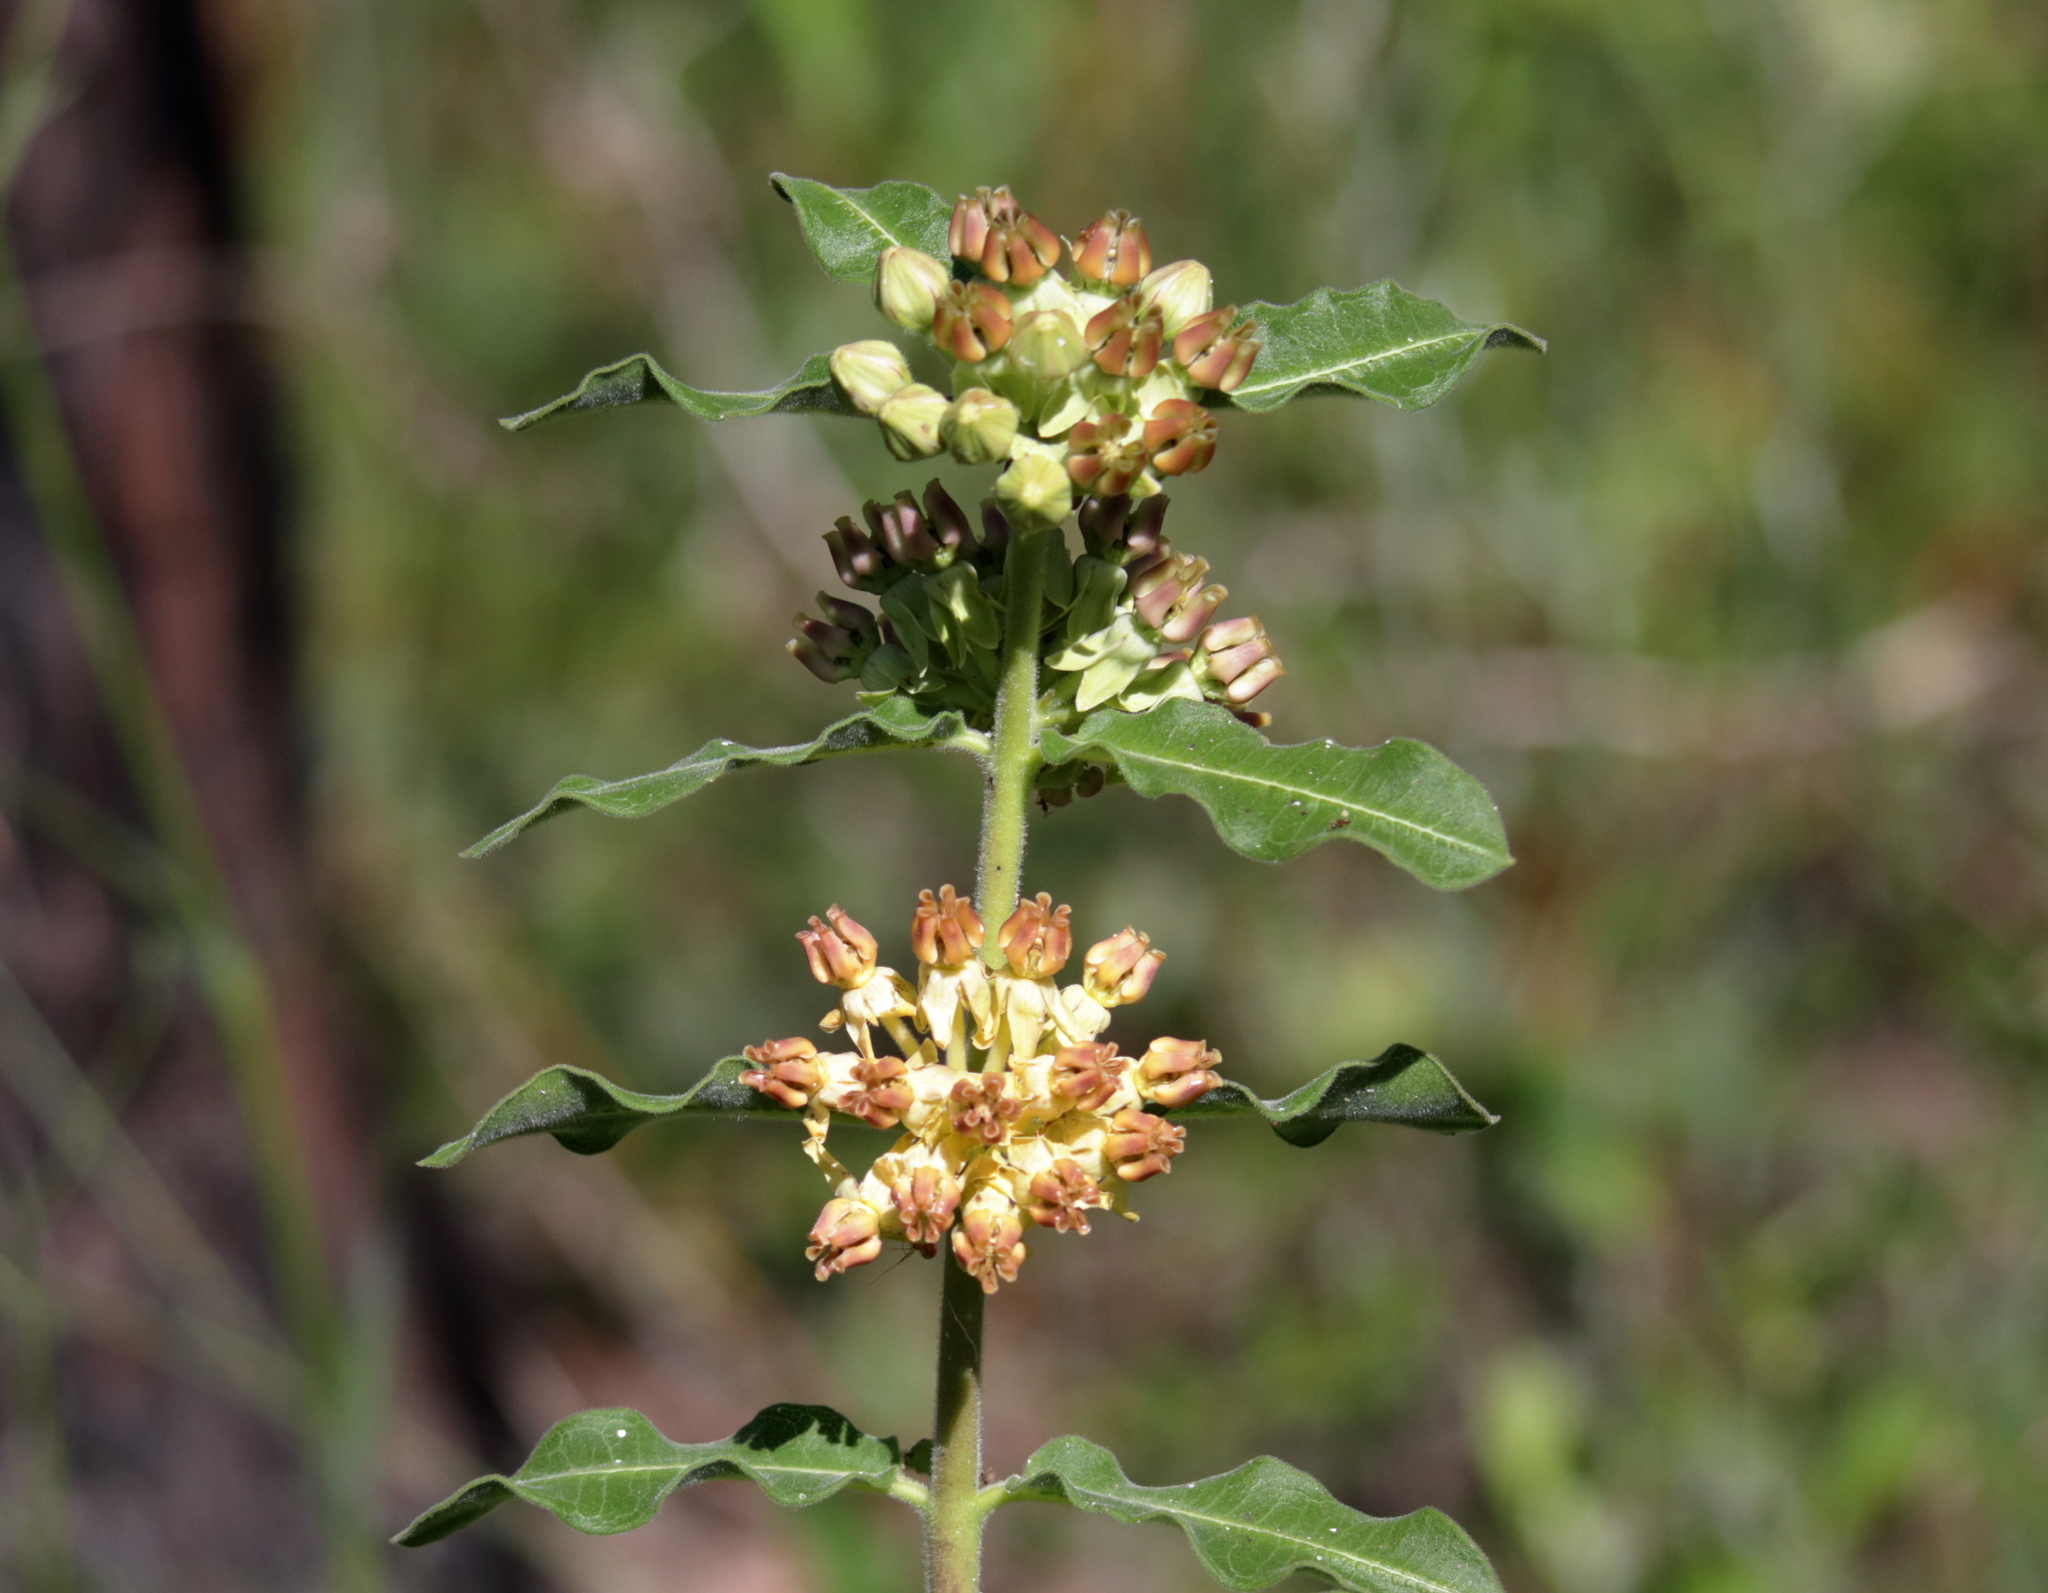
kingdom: Plantae
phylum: Tracheophyta
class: Magnoliopsida
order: Gentianales
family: Apocynaceae
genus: Asclepias
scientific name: Asclepias obovata
